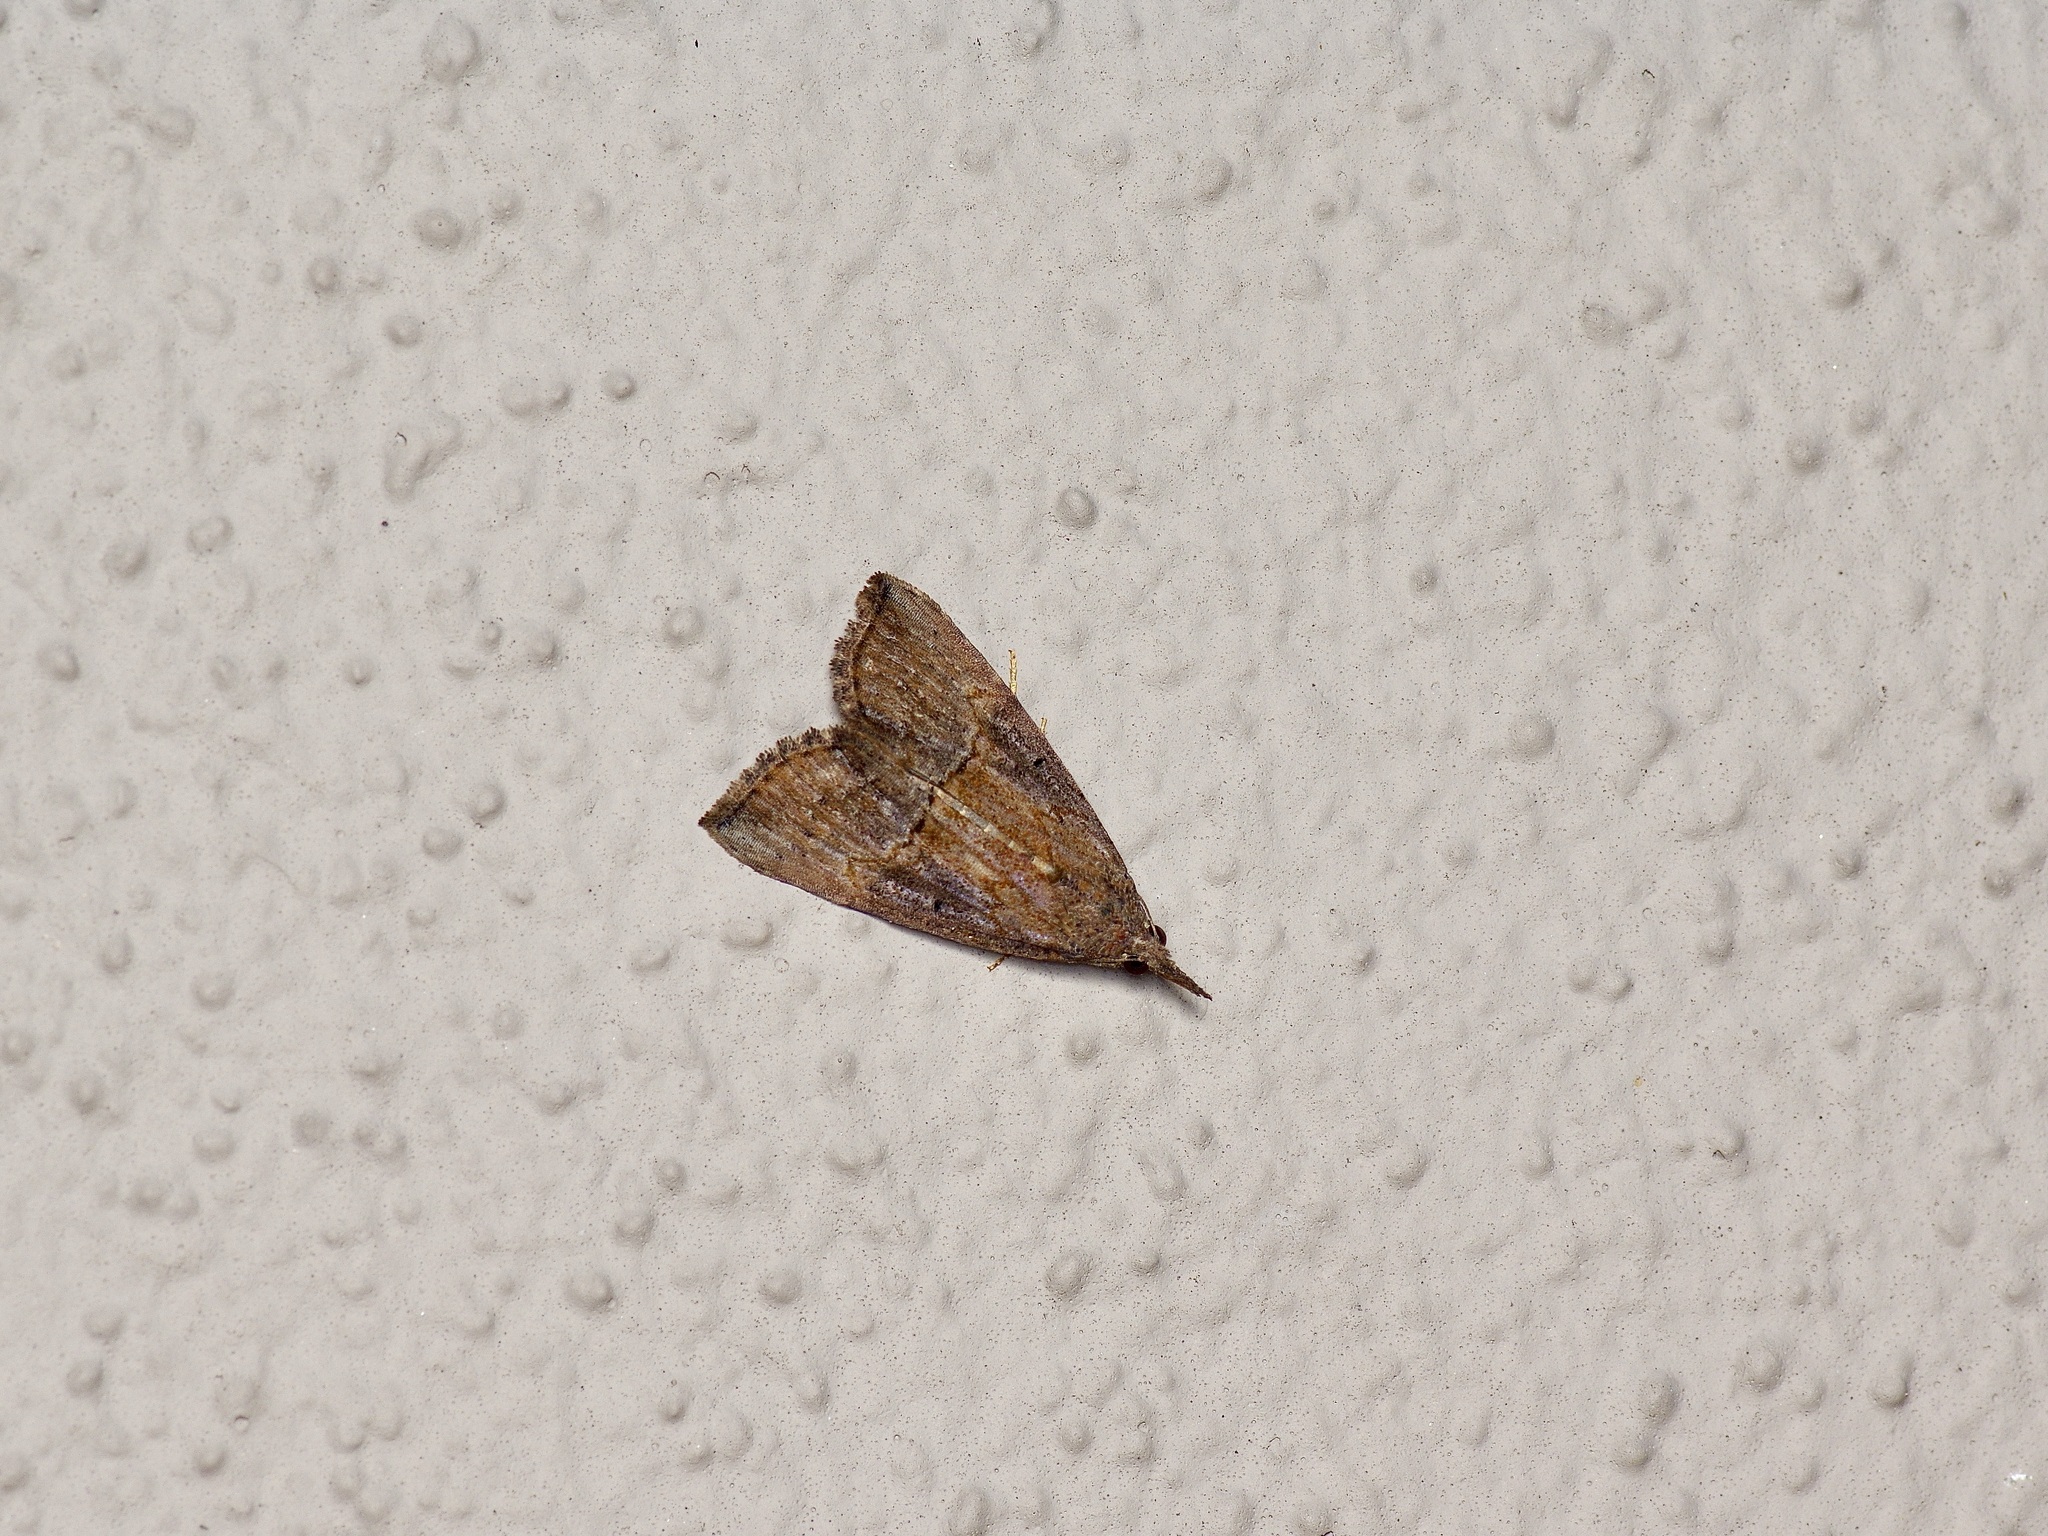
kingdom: Animalia
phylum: Arthropoda
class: Insecta
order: Lepidoptera
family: Erebidae
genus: Hypena
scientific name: Hypena scabra
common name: Green cloverworm
